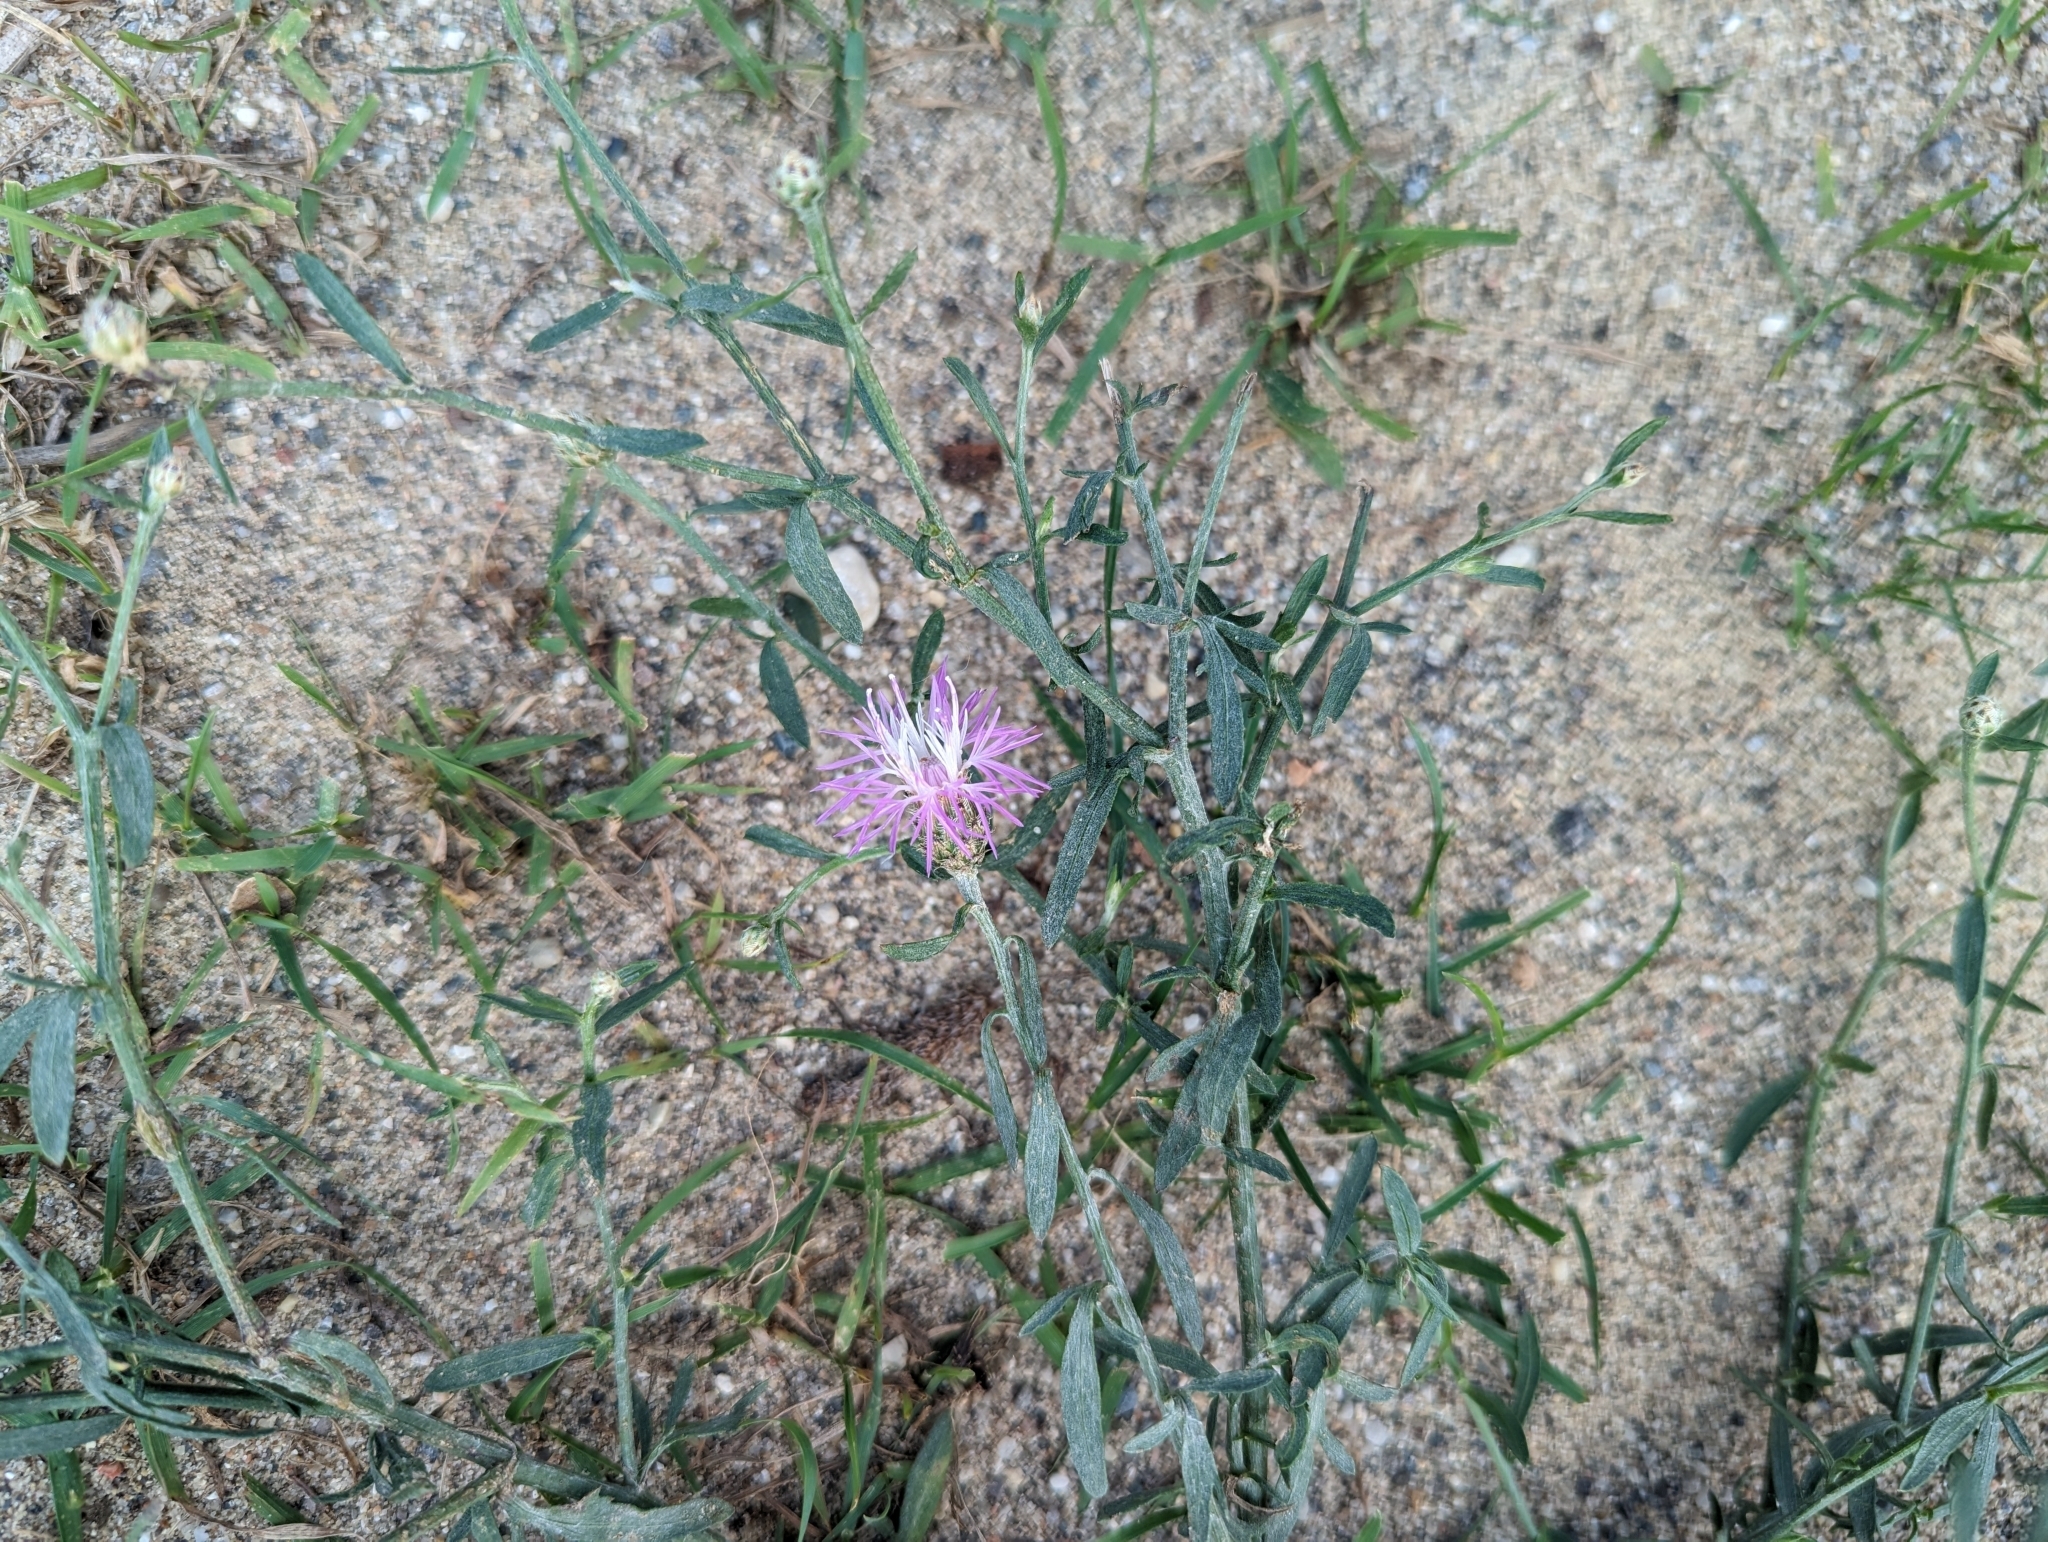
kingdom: Plantae
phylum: Tracheophyta
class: Magnoliopsida
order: Asterales
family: Asteraceae
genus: Centaurea
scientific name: Centaurea stoebe
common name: Spotted knapweed
